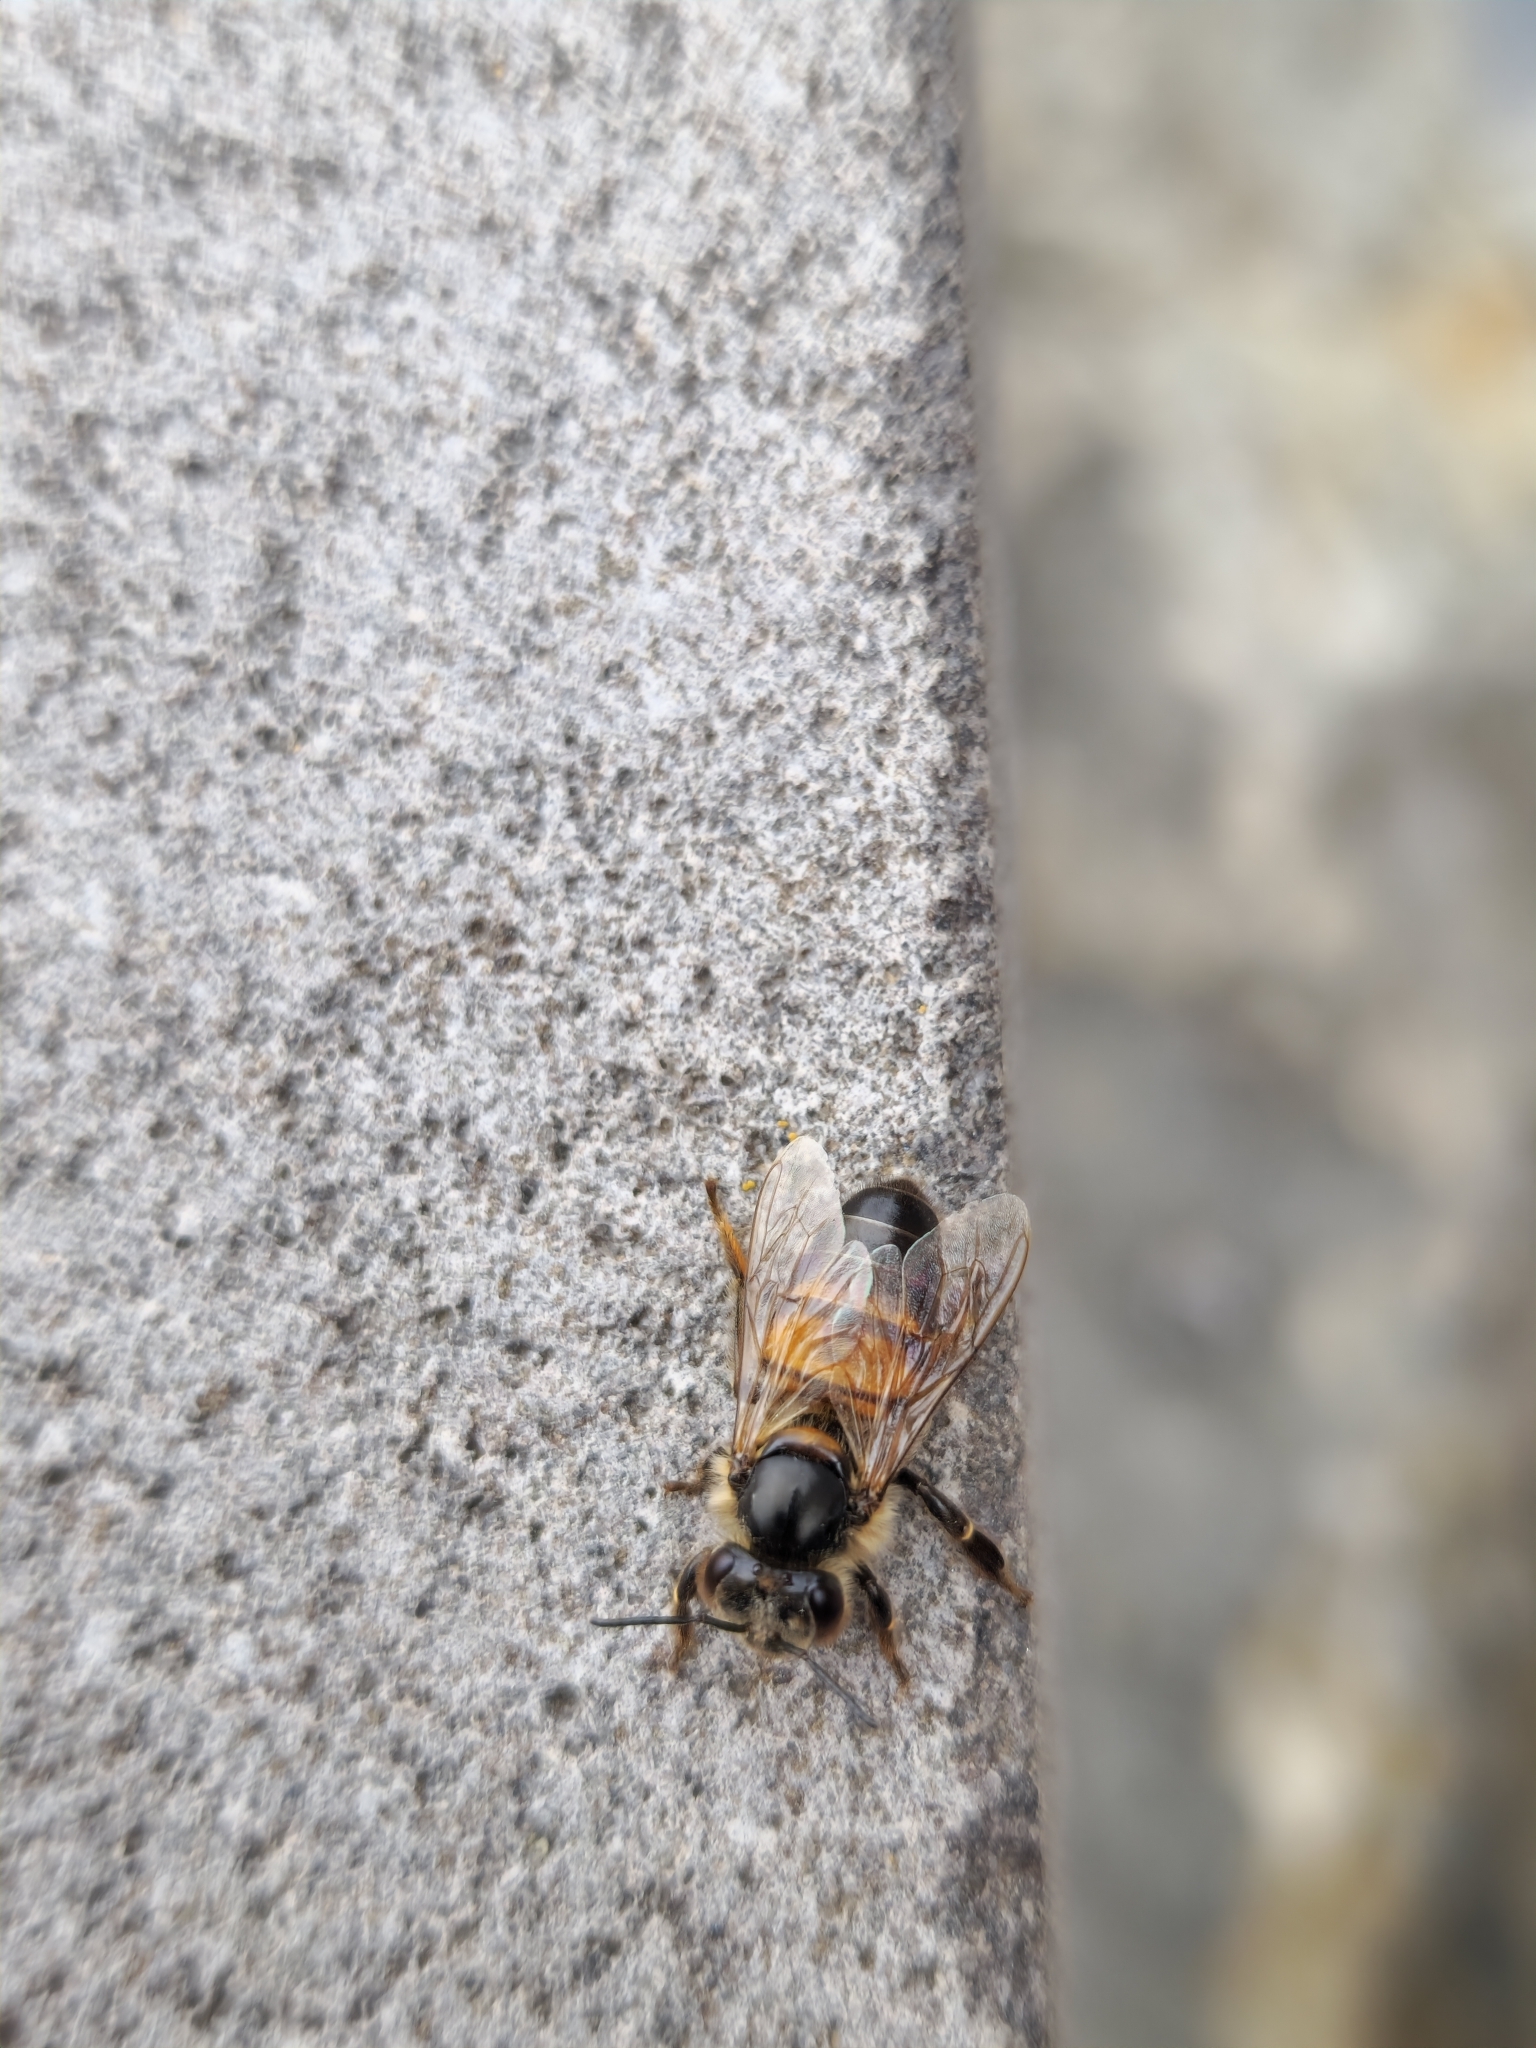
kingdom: Animalia
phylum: Arthropoda
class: Insecta
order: Hymenoptera
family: Apidae
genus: Apis
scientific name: Apis mellifera
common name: Honey bee
